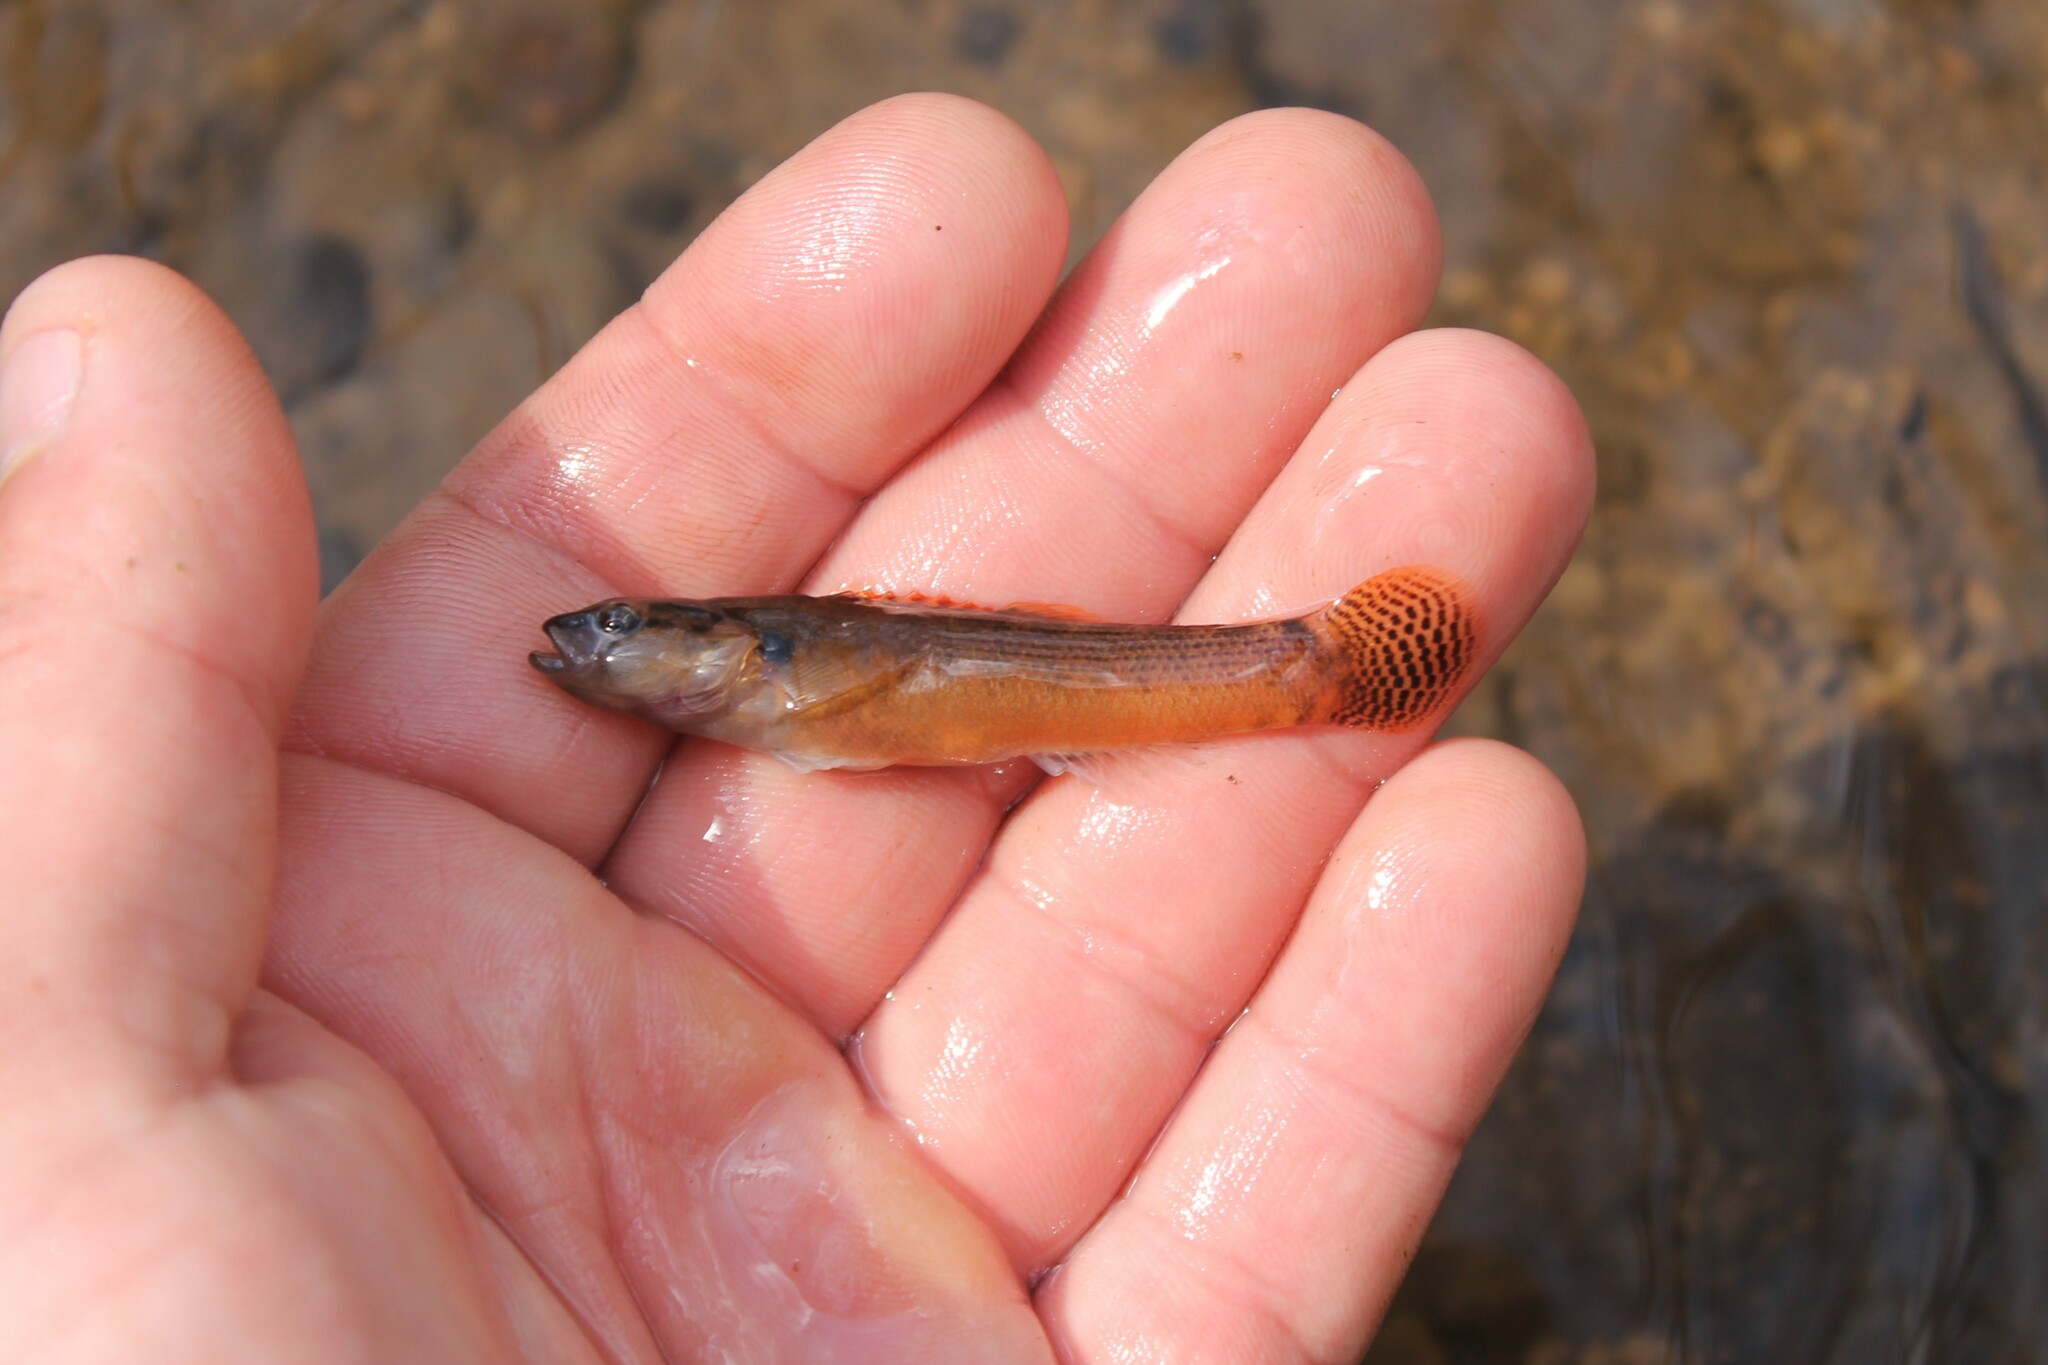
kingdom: Animalia
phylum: Chordata
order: Perciformes
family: Percidae
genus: Etheostoma
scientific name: Etheostoma flabellare
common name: Fantail darter
